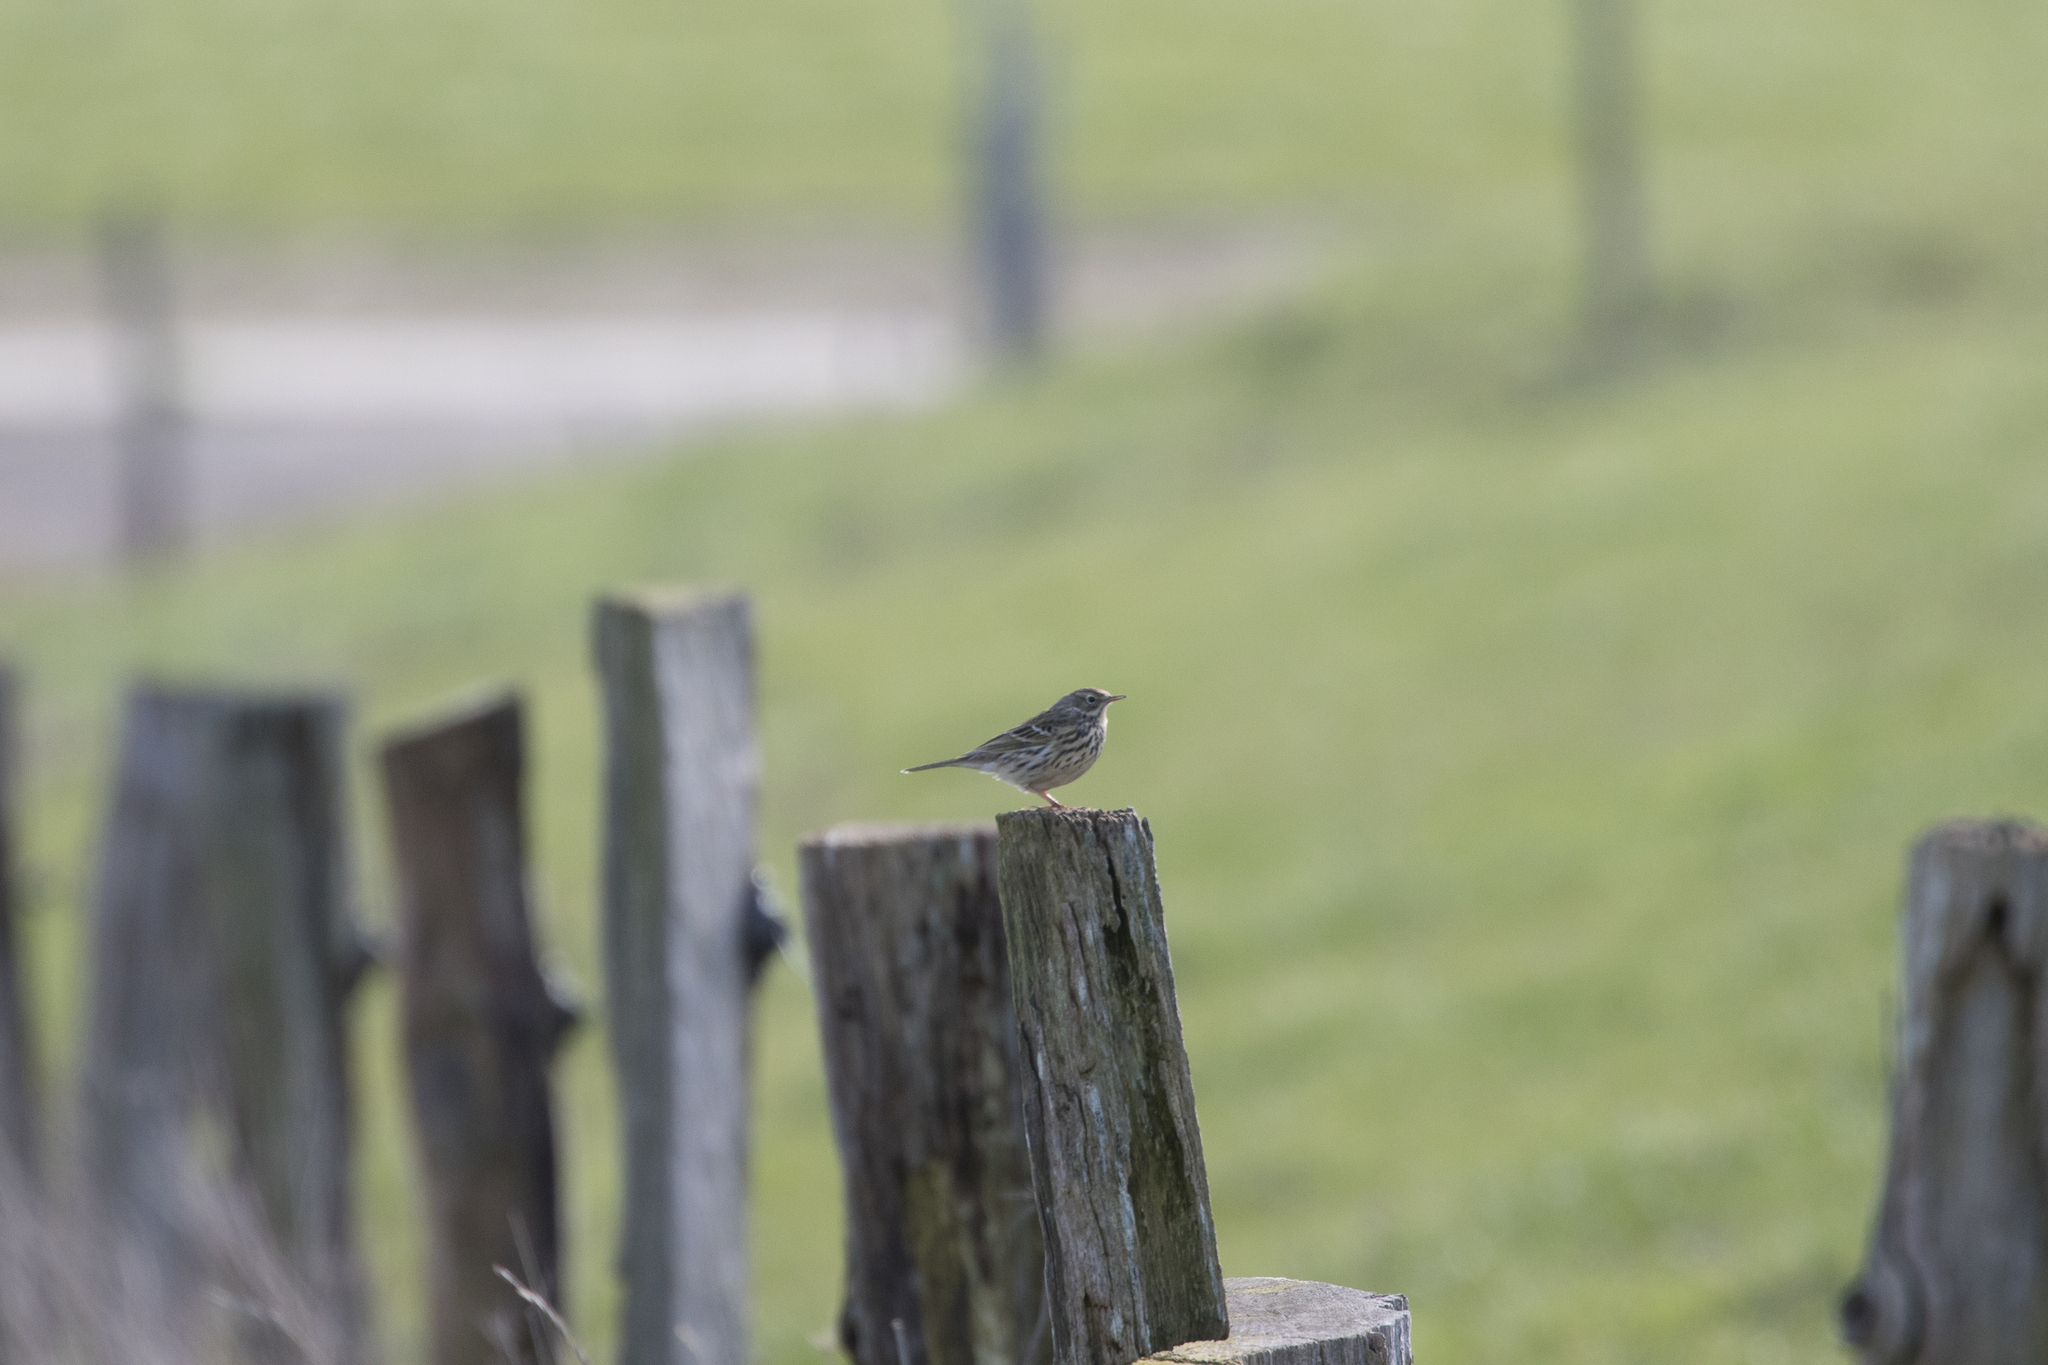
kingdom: Animalia
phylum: Chordata
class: Aves
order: Passeriformes
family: Motacillidae
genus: Anthus
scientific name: Anthus pratensis
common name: Meadow pipit
